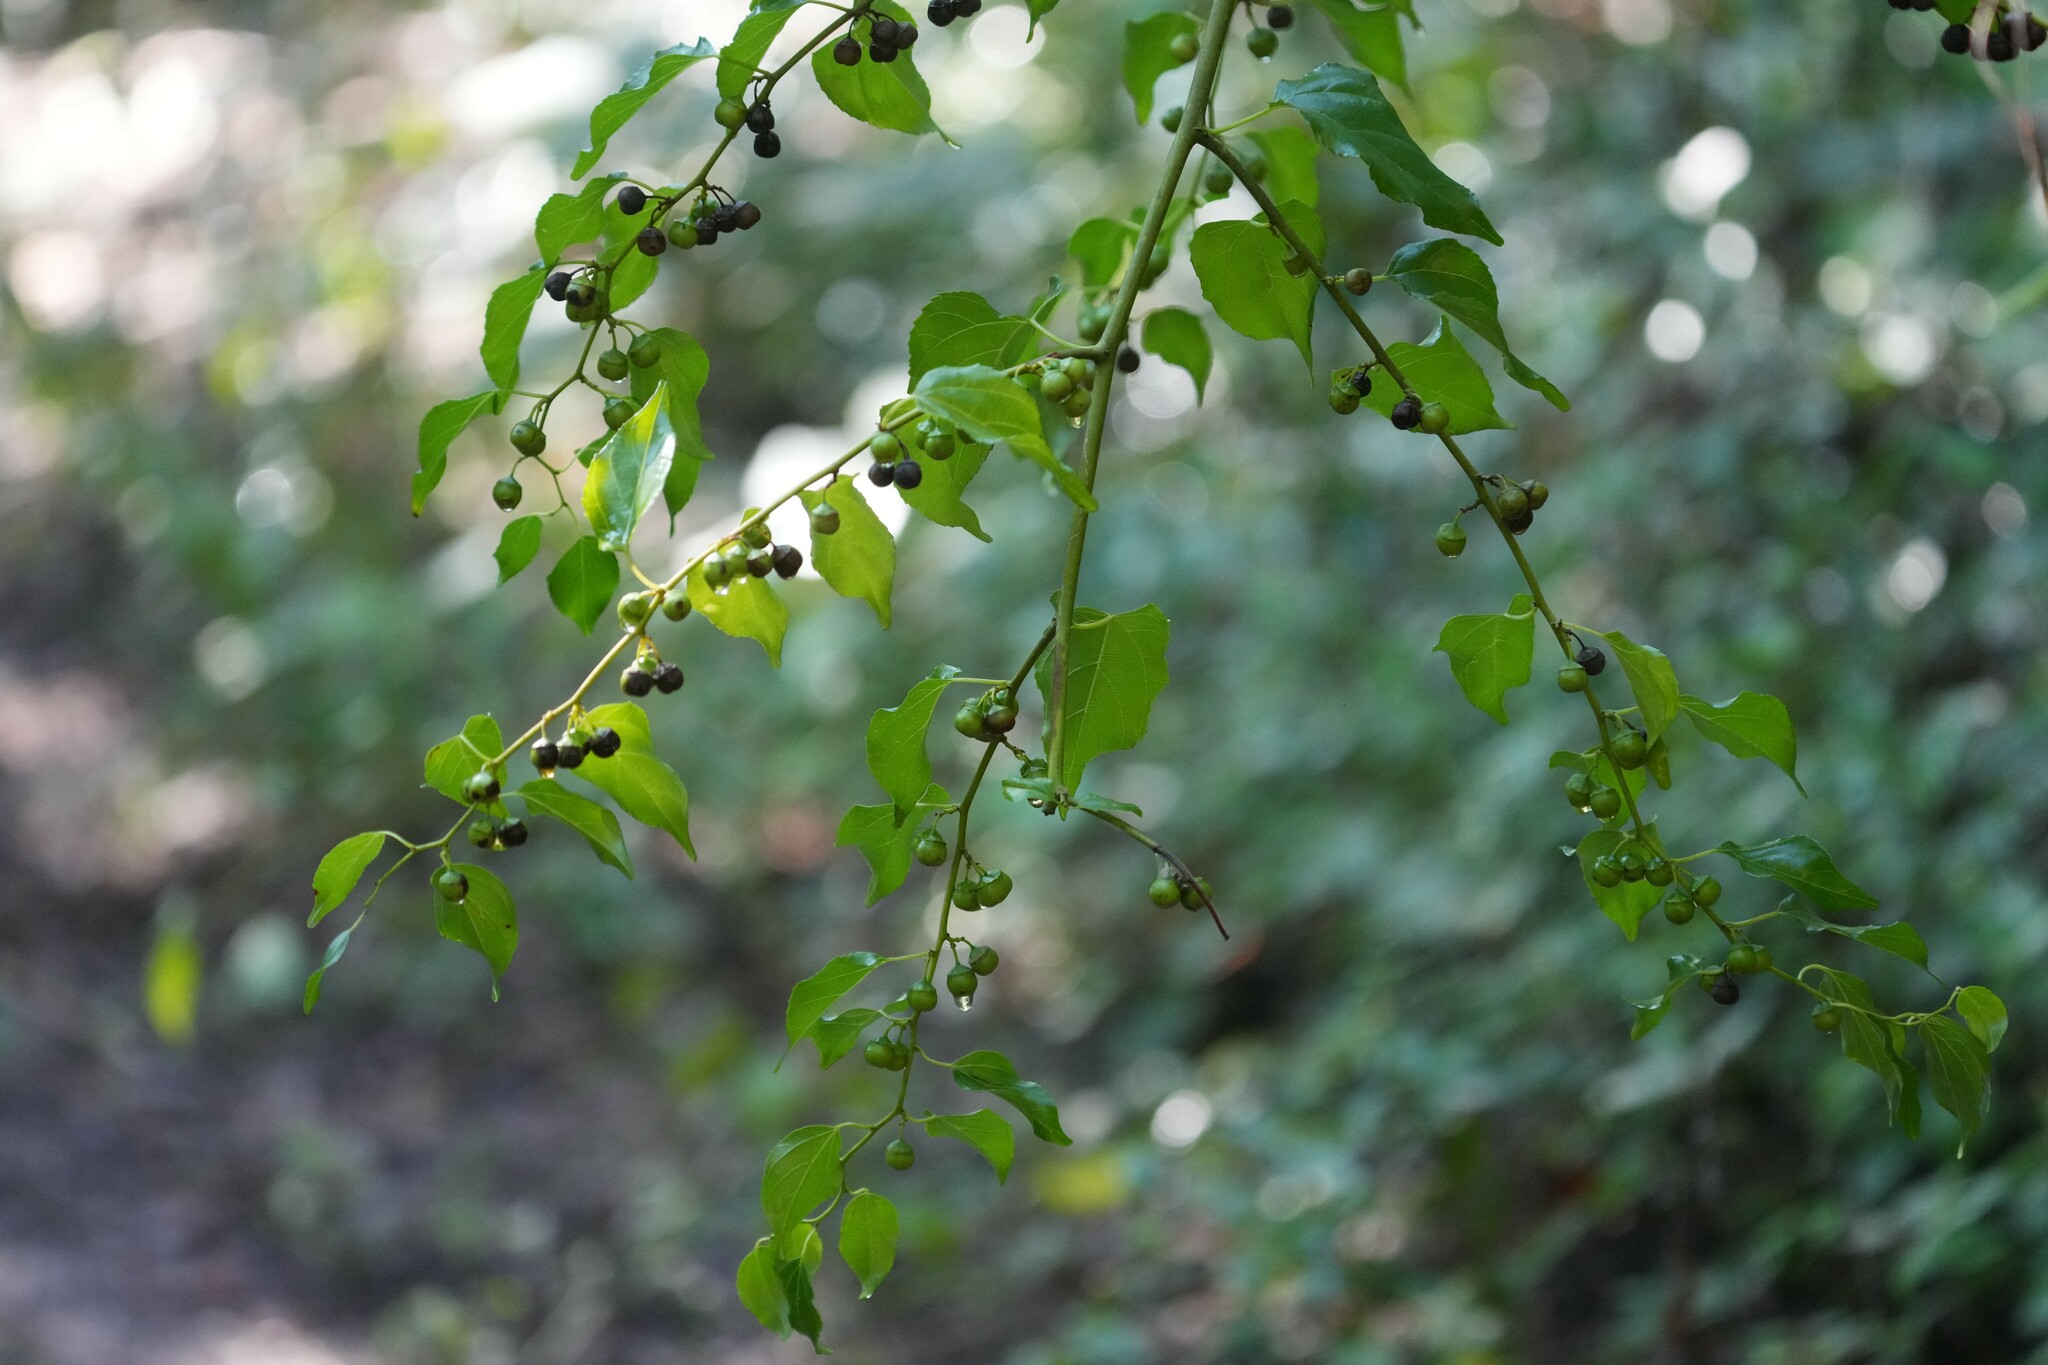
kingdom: Plantae
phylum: Tracheophyta
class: Magnoliopsida
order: Rosales
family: Rhamnaceae
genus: Colubrina
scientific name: Colubrina asiatica
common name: Asian nakedwood
